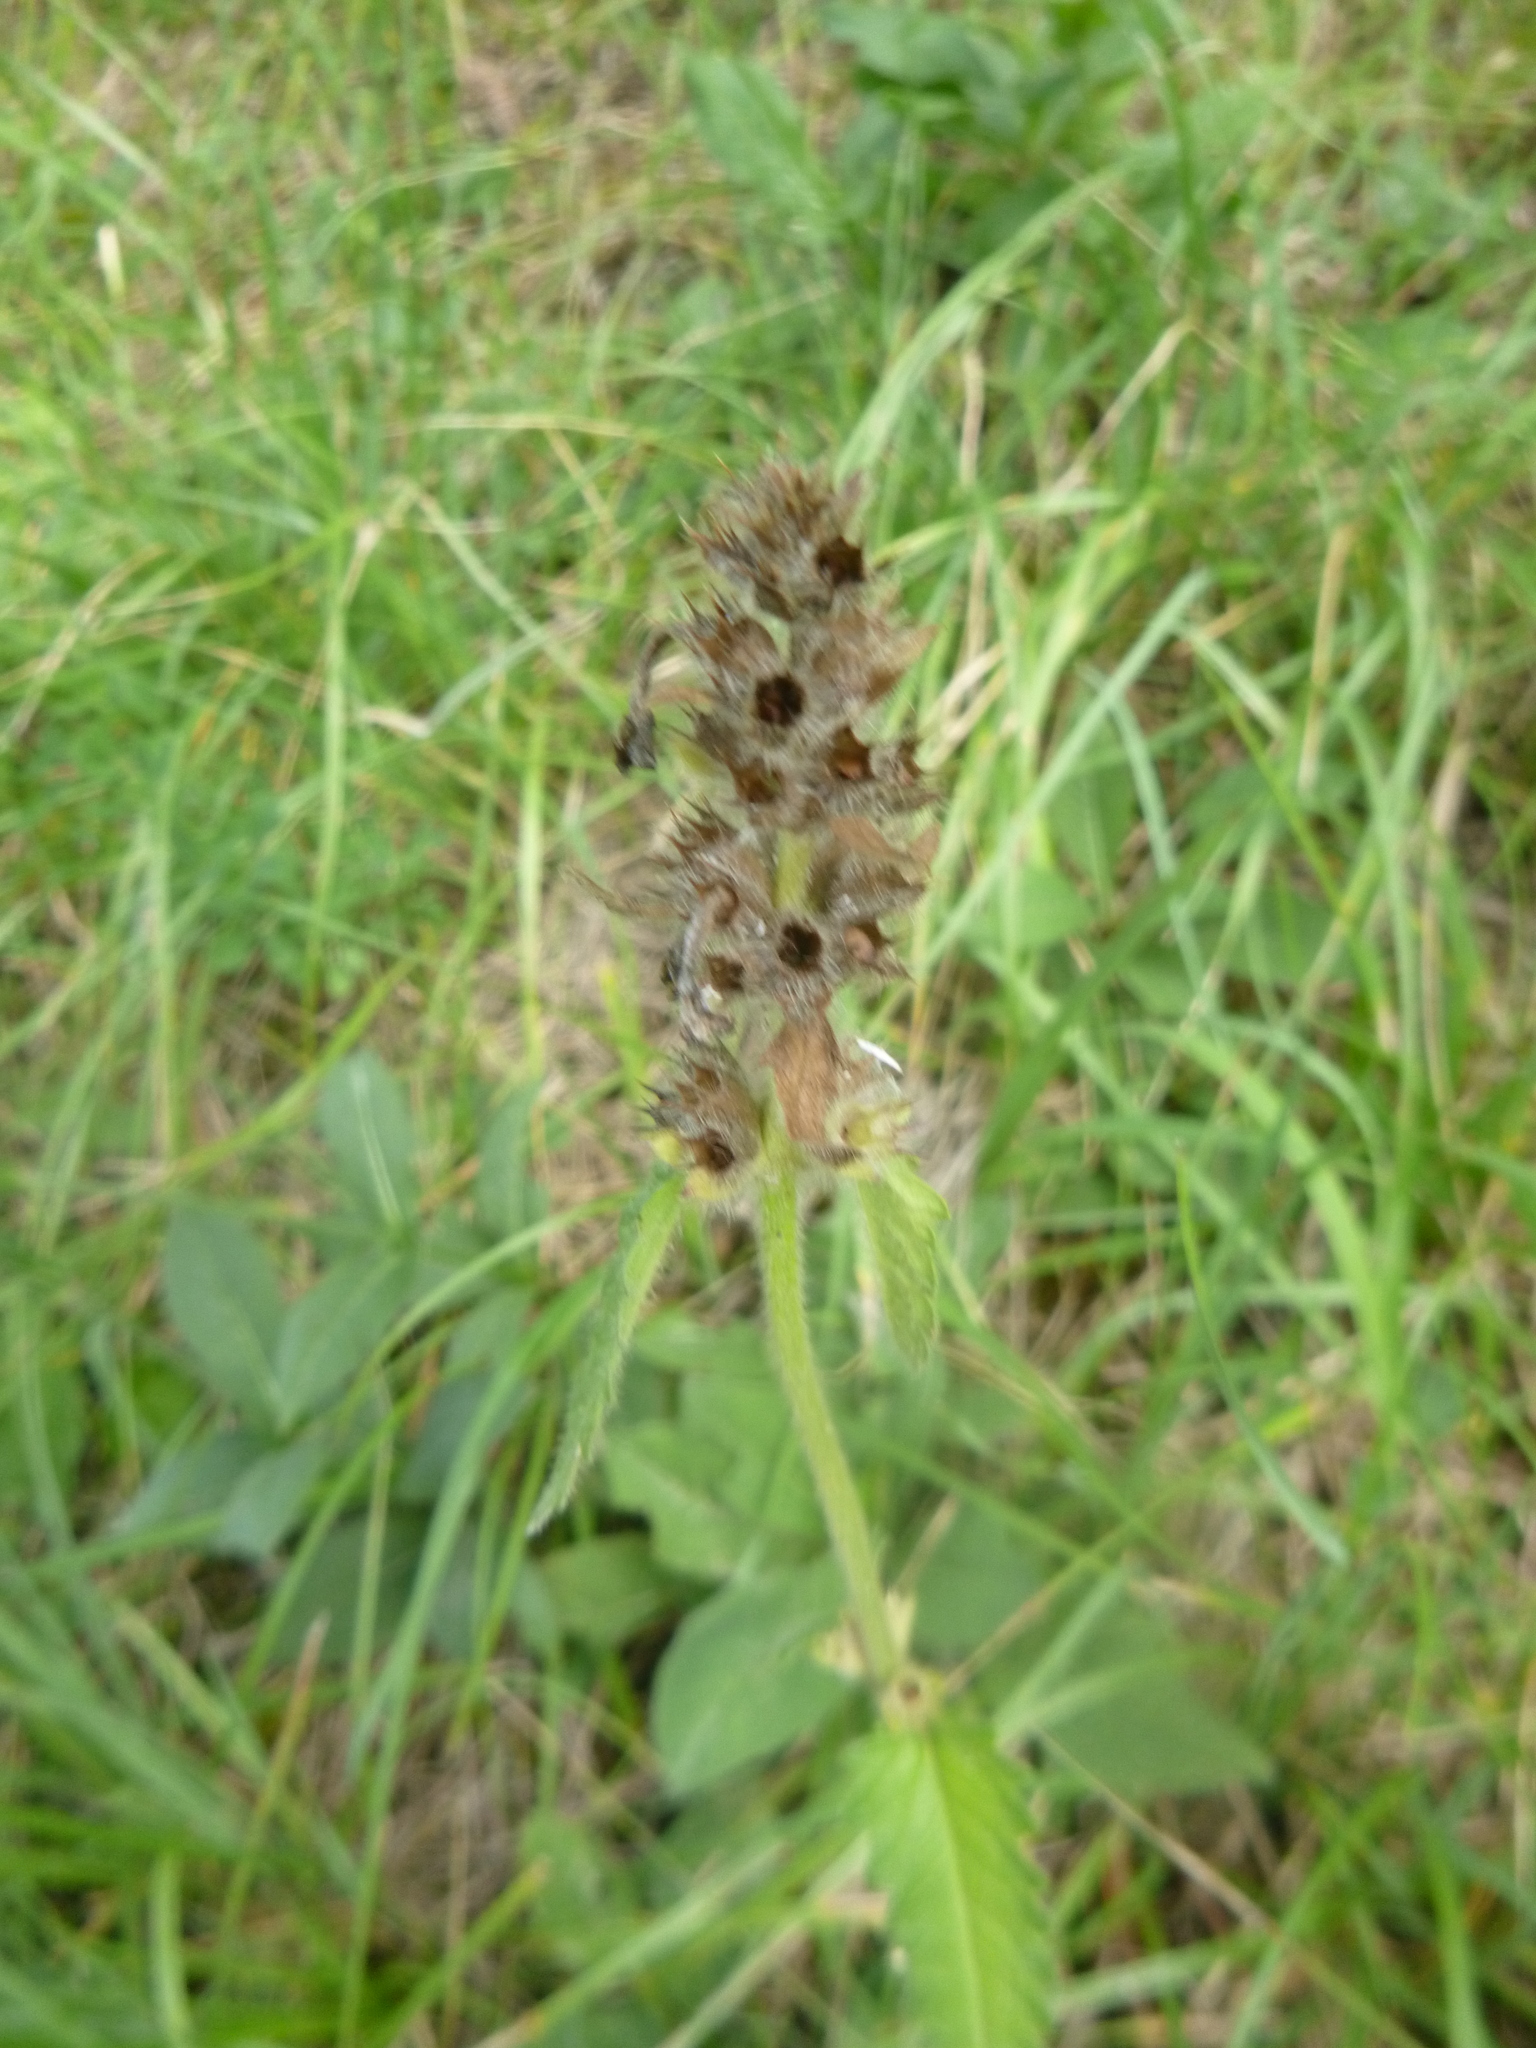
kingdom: Plantae
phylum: Tracheophyta
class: Magnoliopsida
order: Lamiales
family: Lamiaceae
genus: Betonica
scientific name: Betonica officinalis
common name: Bishop's-wort
